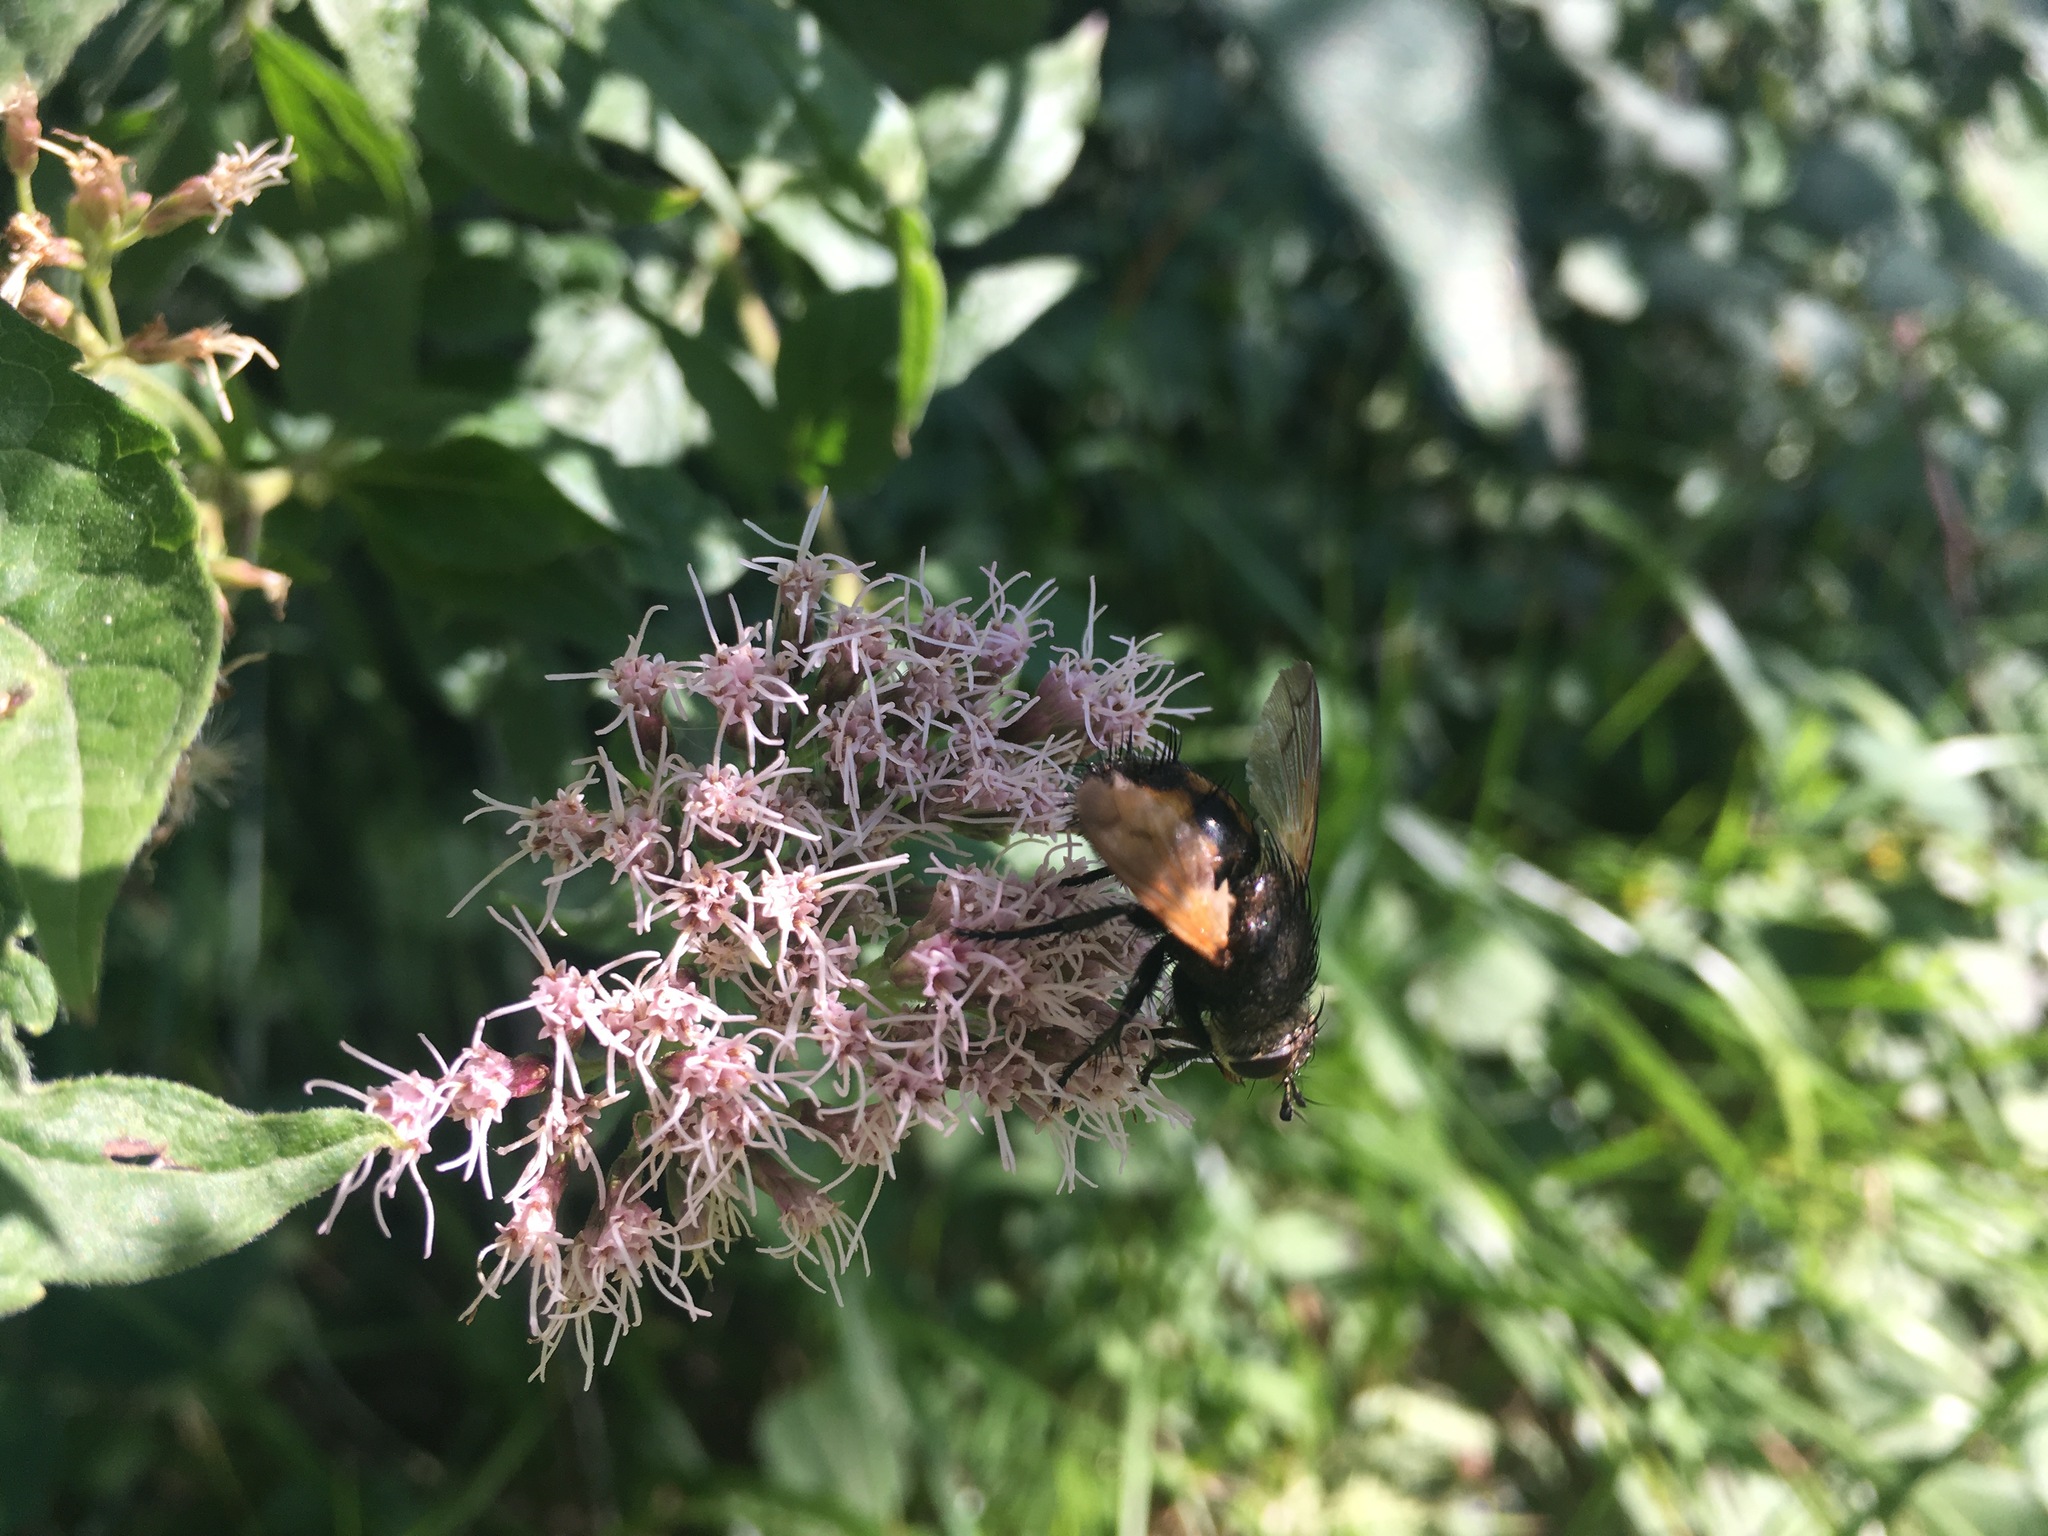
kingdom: Animalia
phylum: Arthropoda
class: Insecta
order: Diptera
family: Tachinidae
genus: Nowickia
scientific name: Nowickia ferox
